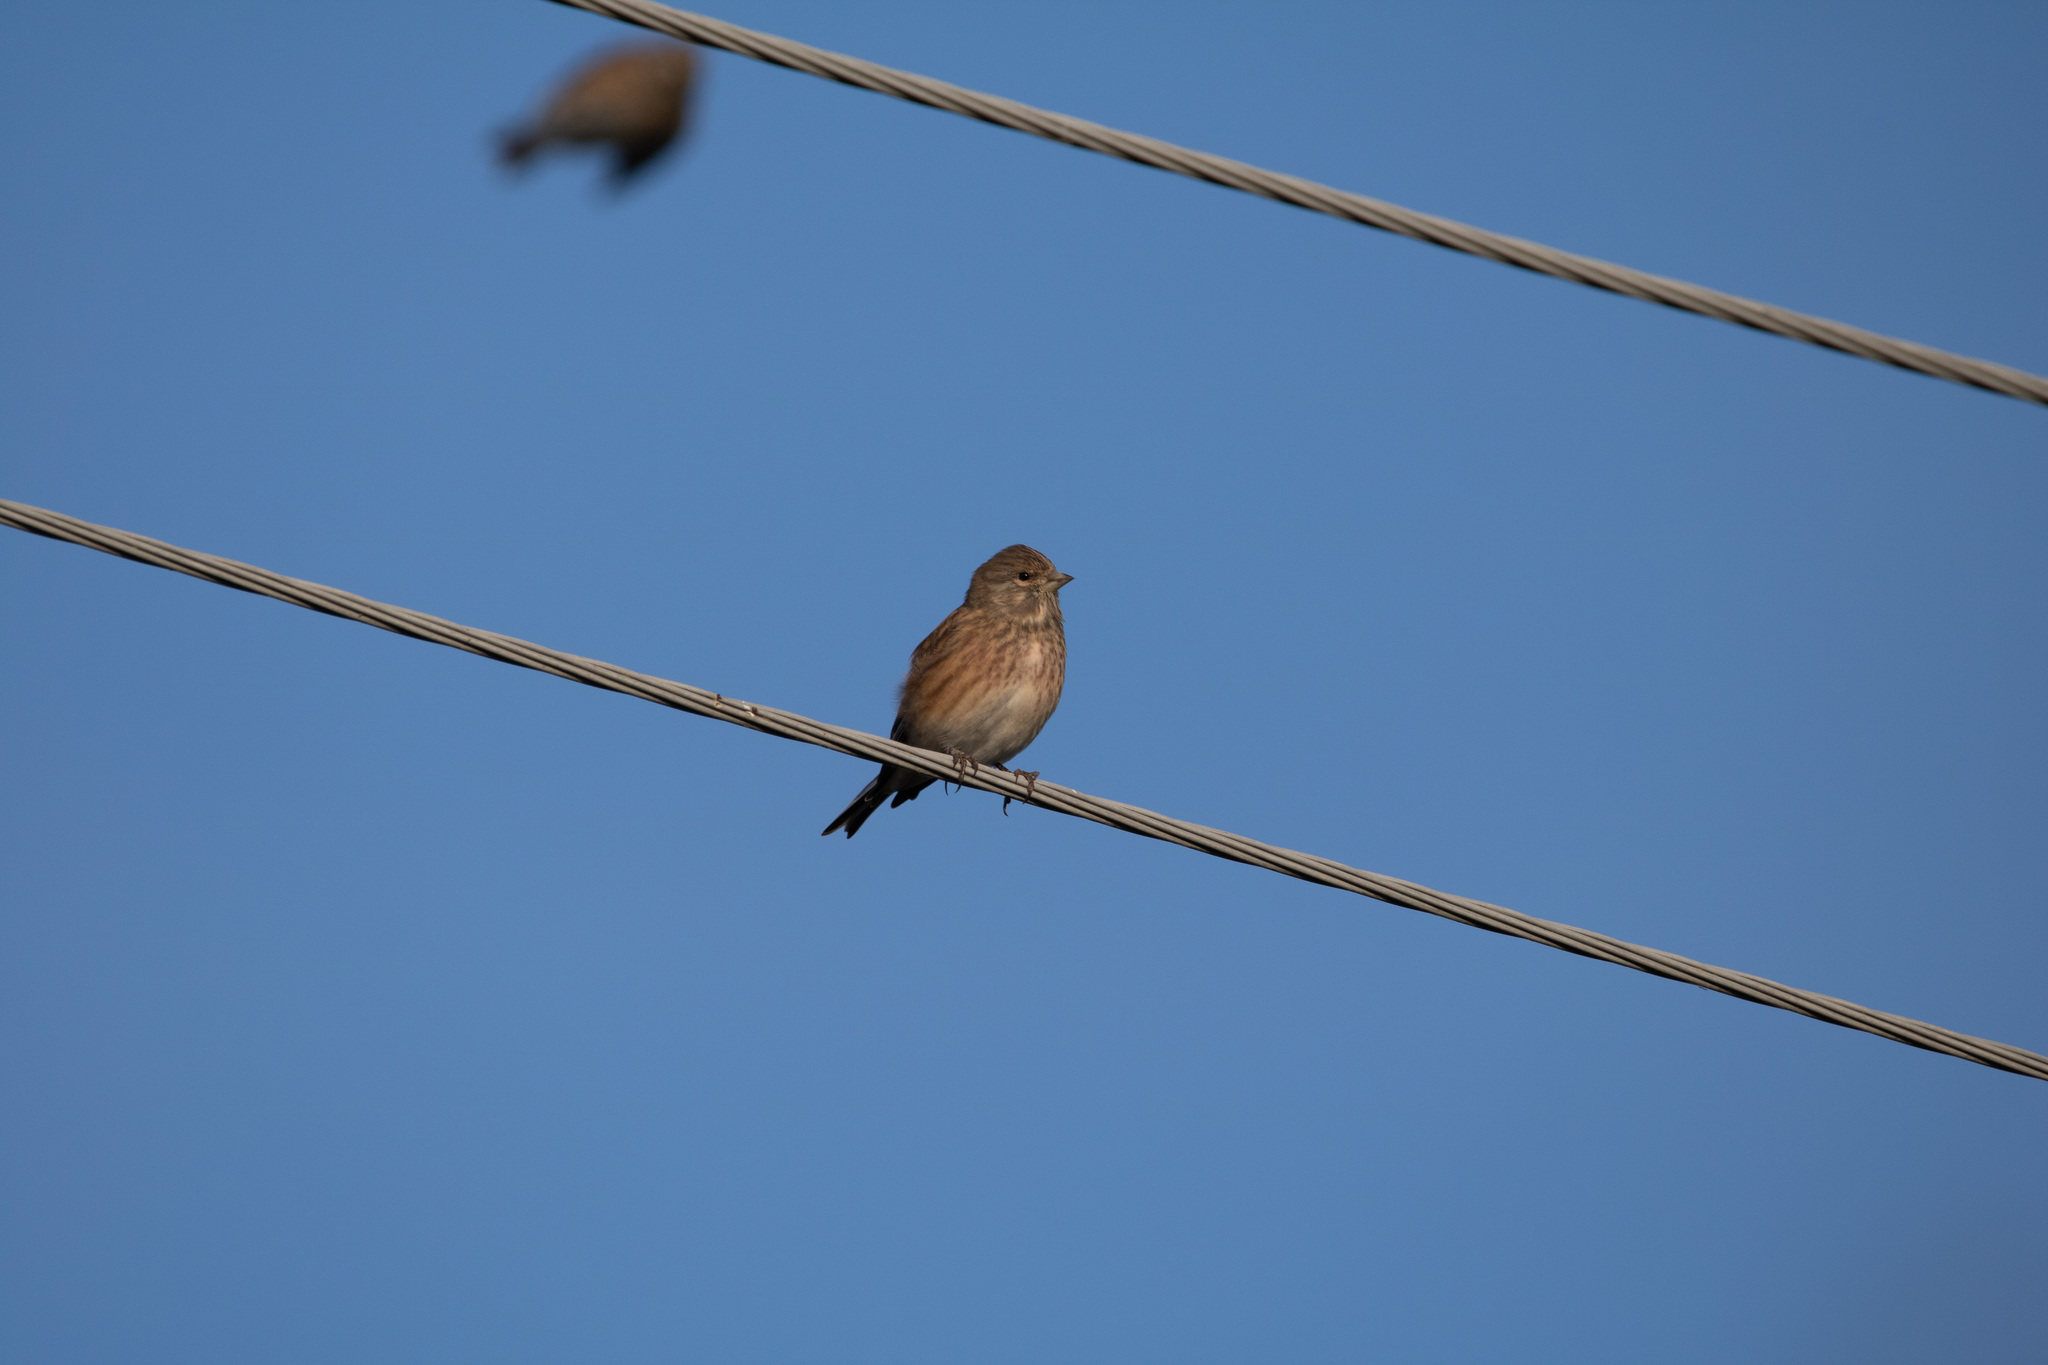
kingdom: Animalia
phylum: Chordata
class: Aves
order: Passeriformes
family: Fringillidae
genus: Linaria
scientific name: Linaria cannabina
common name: Common linnet
